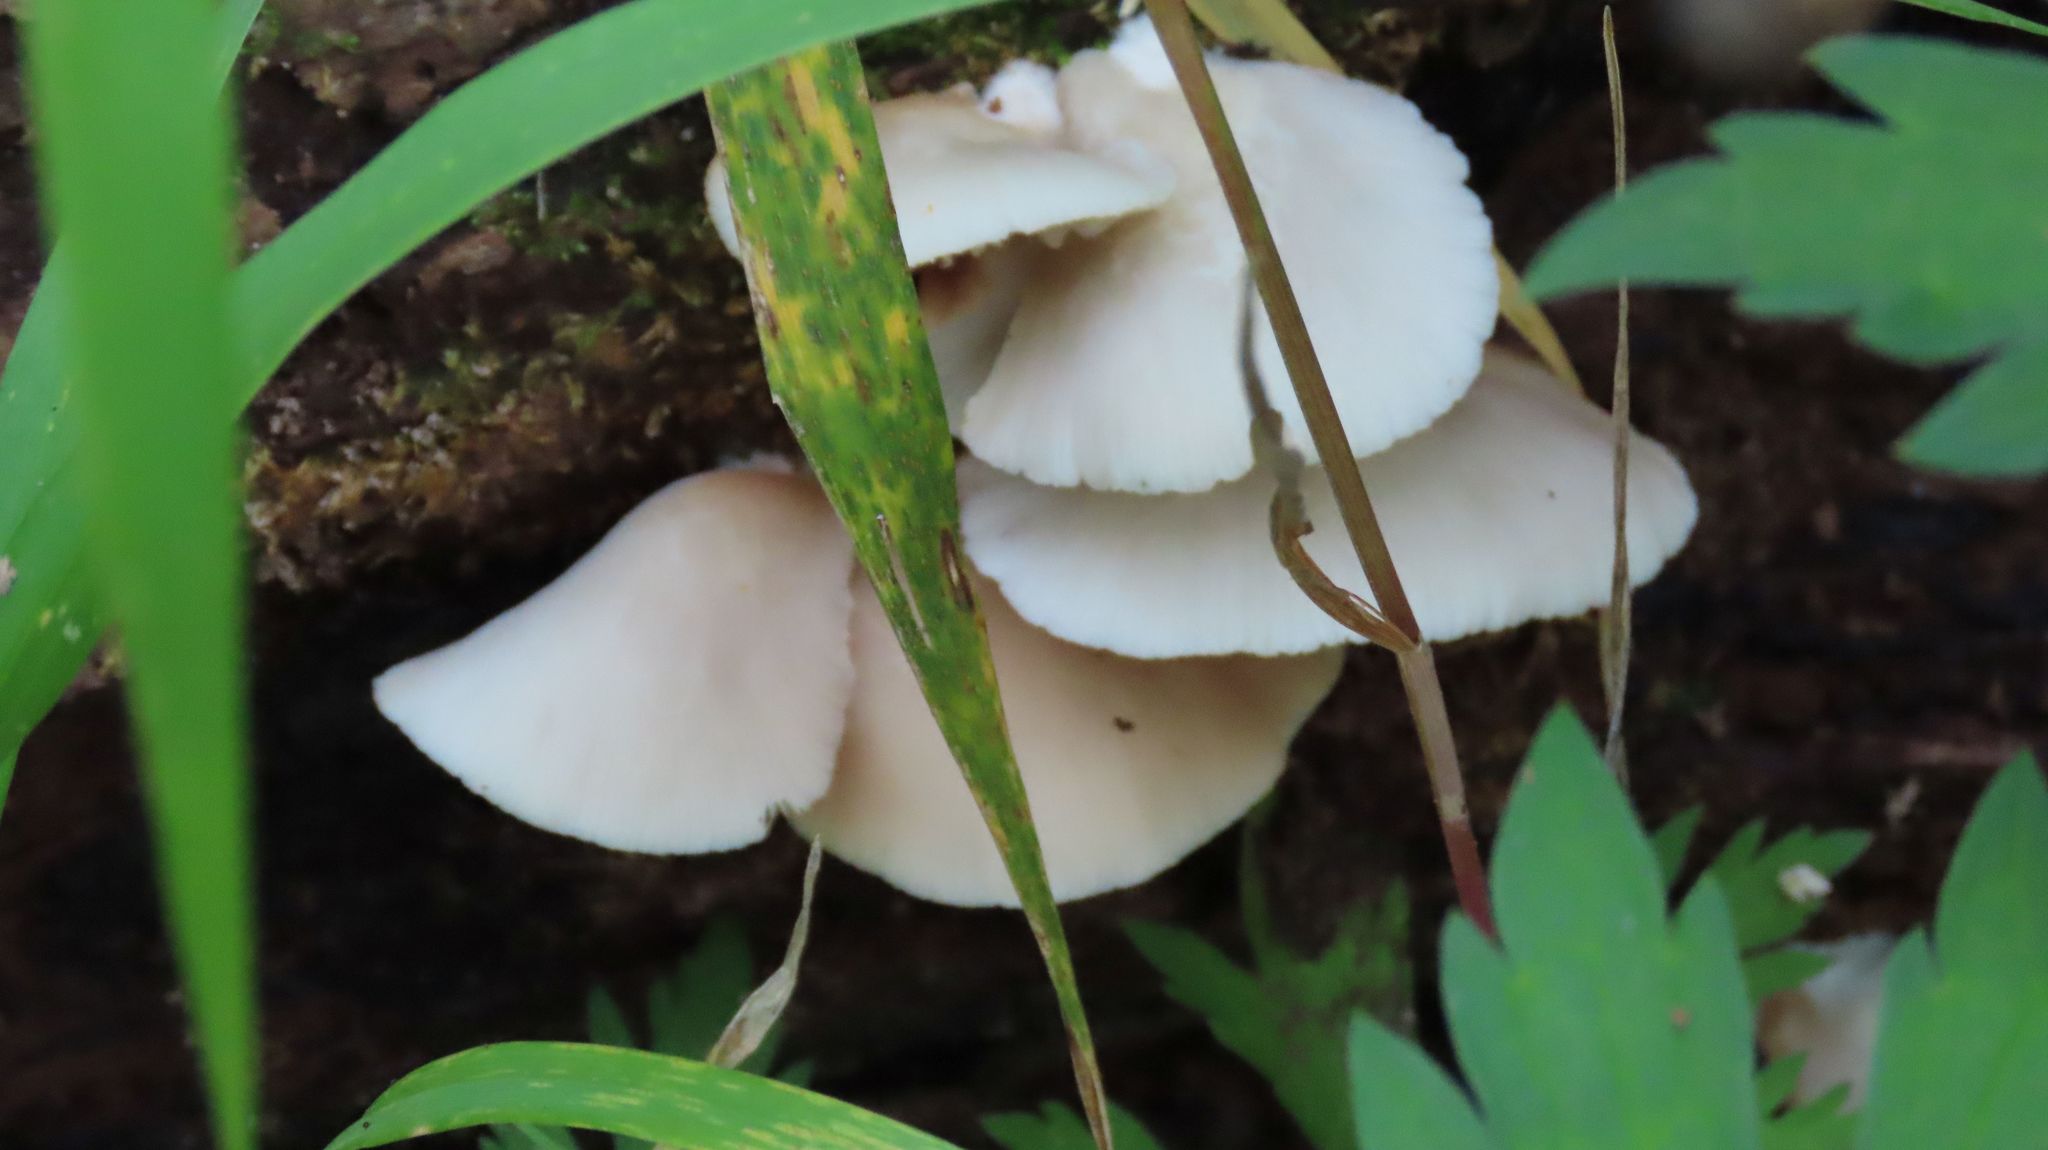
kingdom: Fungi
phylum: Basidiomycota
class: Agaricomycetes
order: Agaricales
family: Crepidotaceae
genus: Crepidotus
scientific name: Crepidotus applanatus
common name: Flat crep
